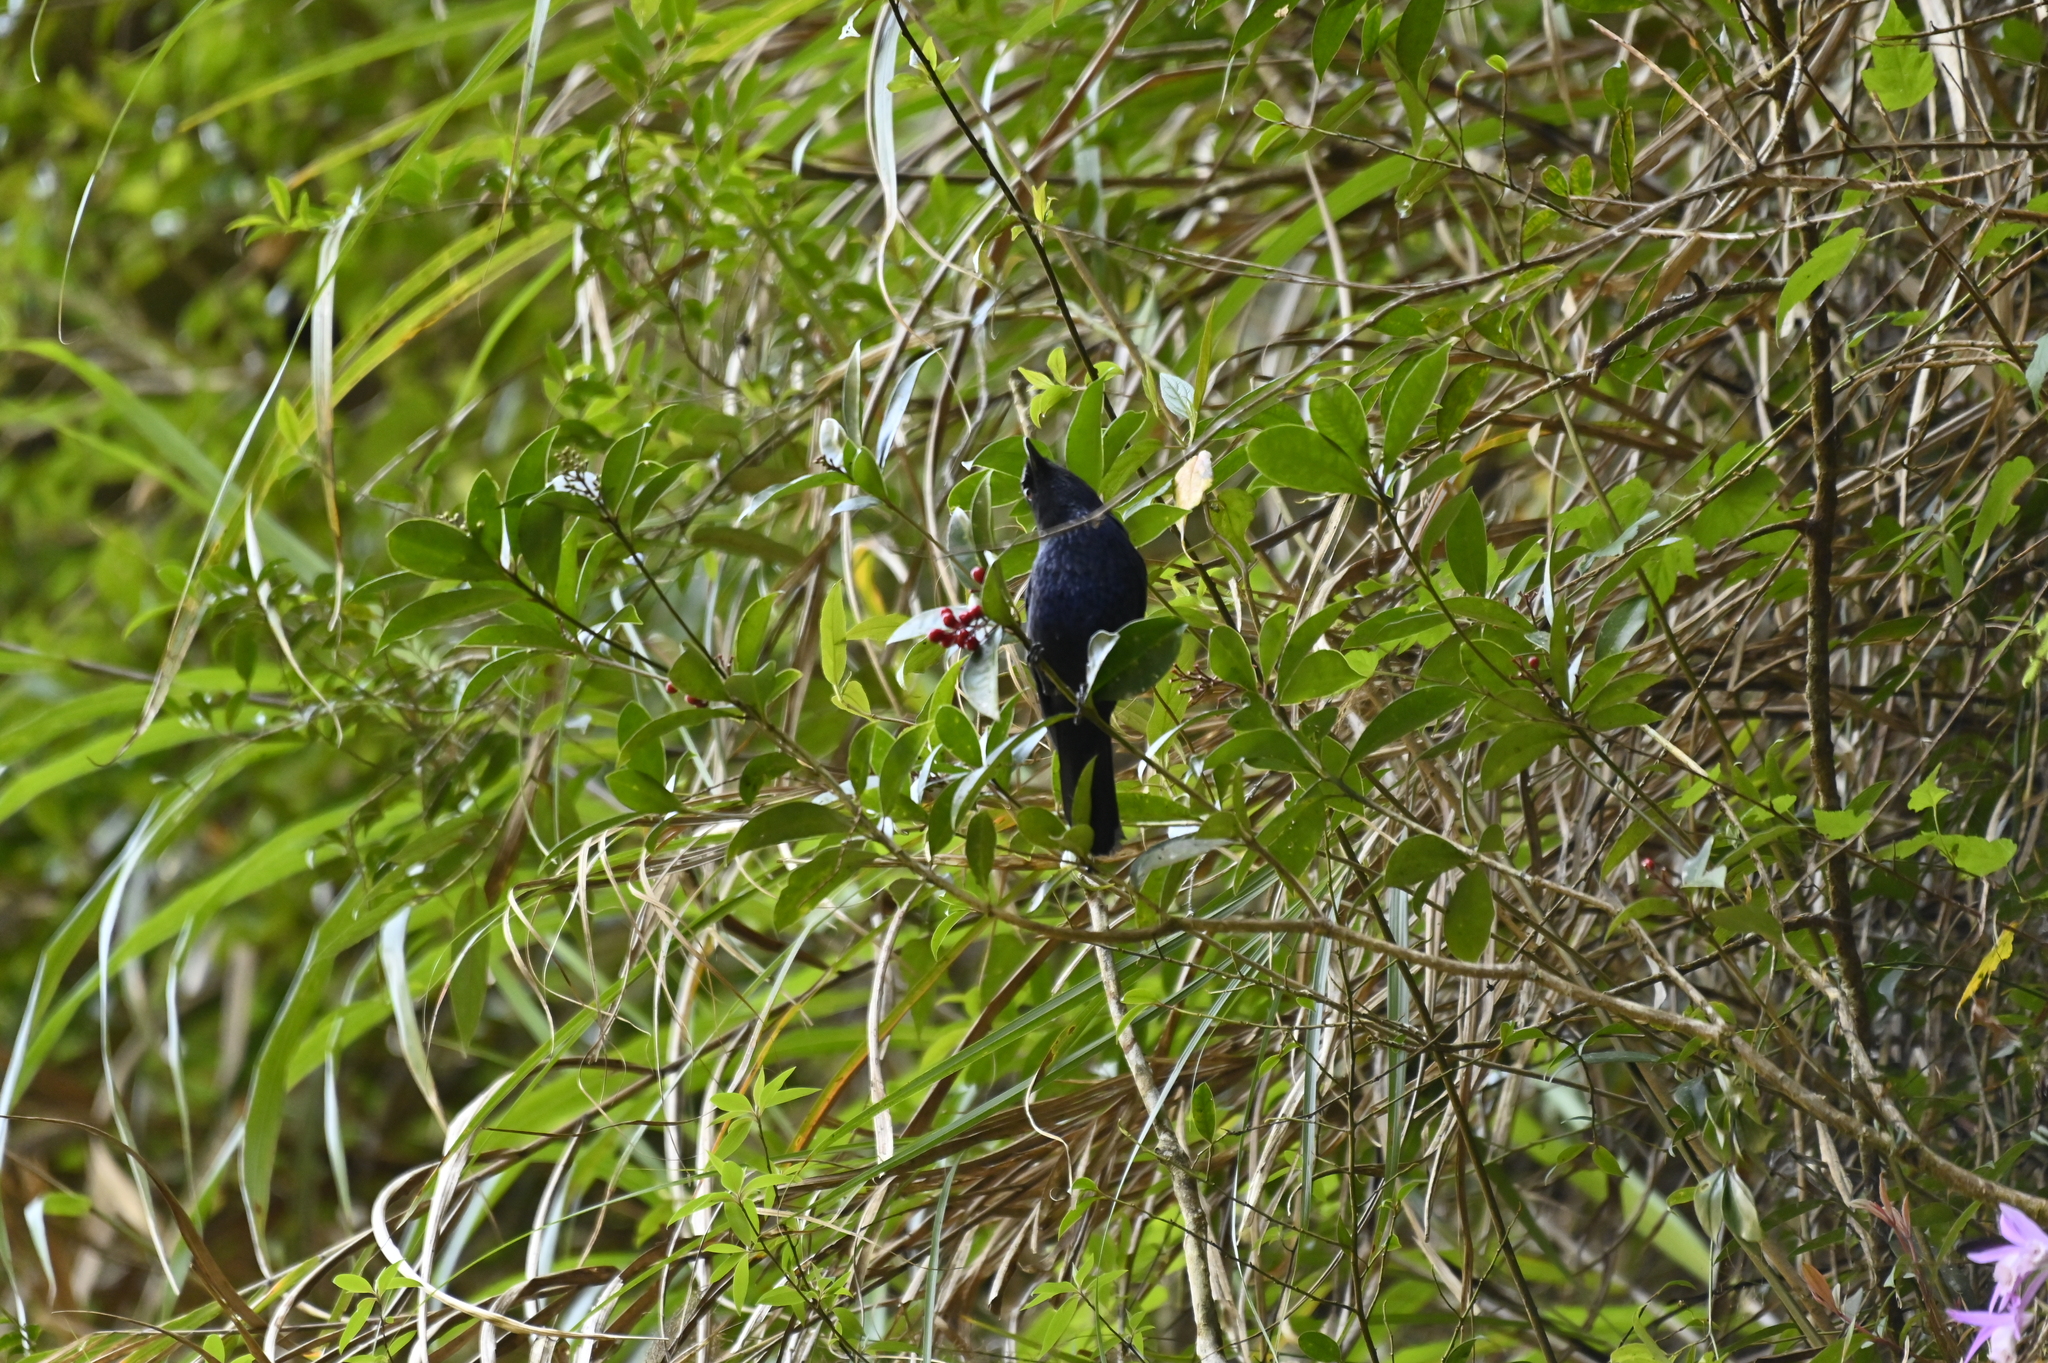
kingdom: Animalia
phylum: Chordata
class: Aves
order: Passeriformes
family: Muscicapidae
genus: Myophonus
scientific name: Myophonus insularis
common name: Taiwan whistling-thrush
